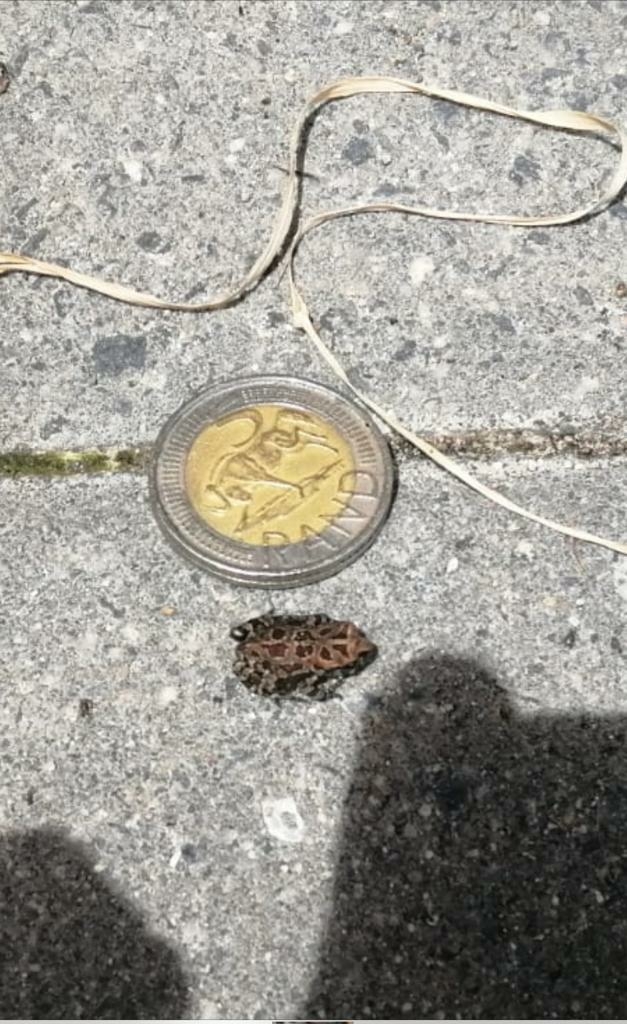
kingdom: Animalia
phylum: Chordata
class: Amphibia
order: Anura
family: Bufonidae
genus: Sclerophrys
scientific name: Sclerophrys pantherina
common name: Panther toad
